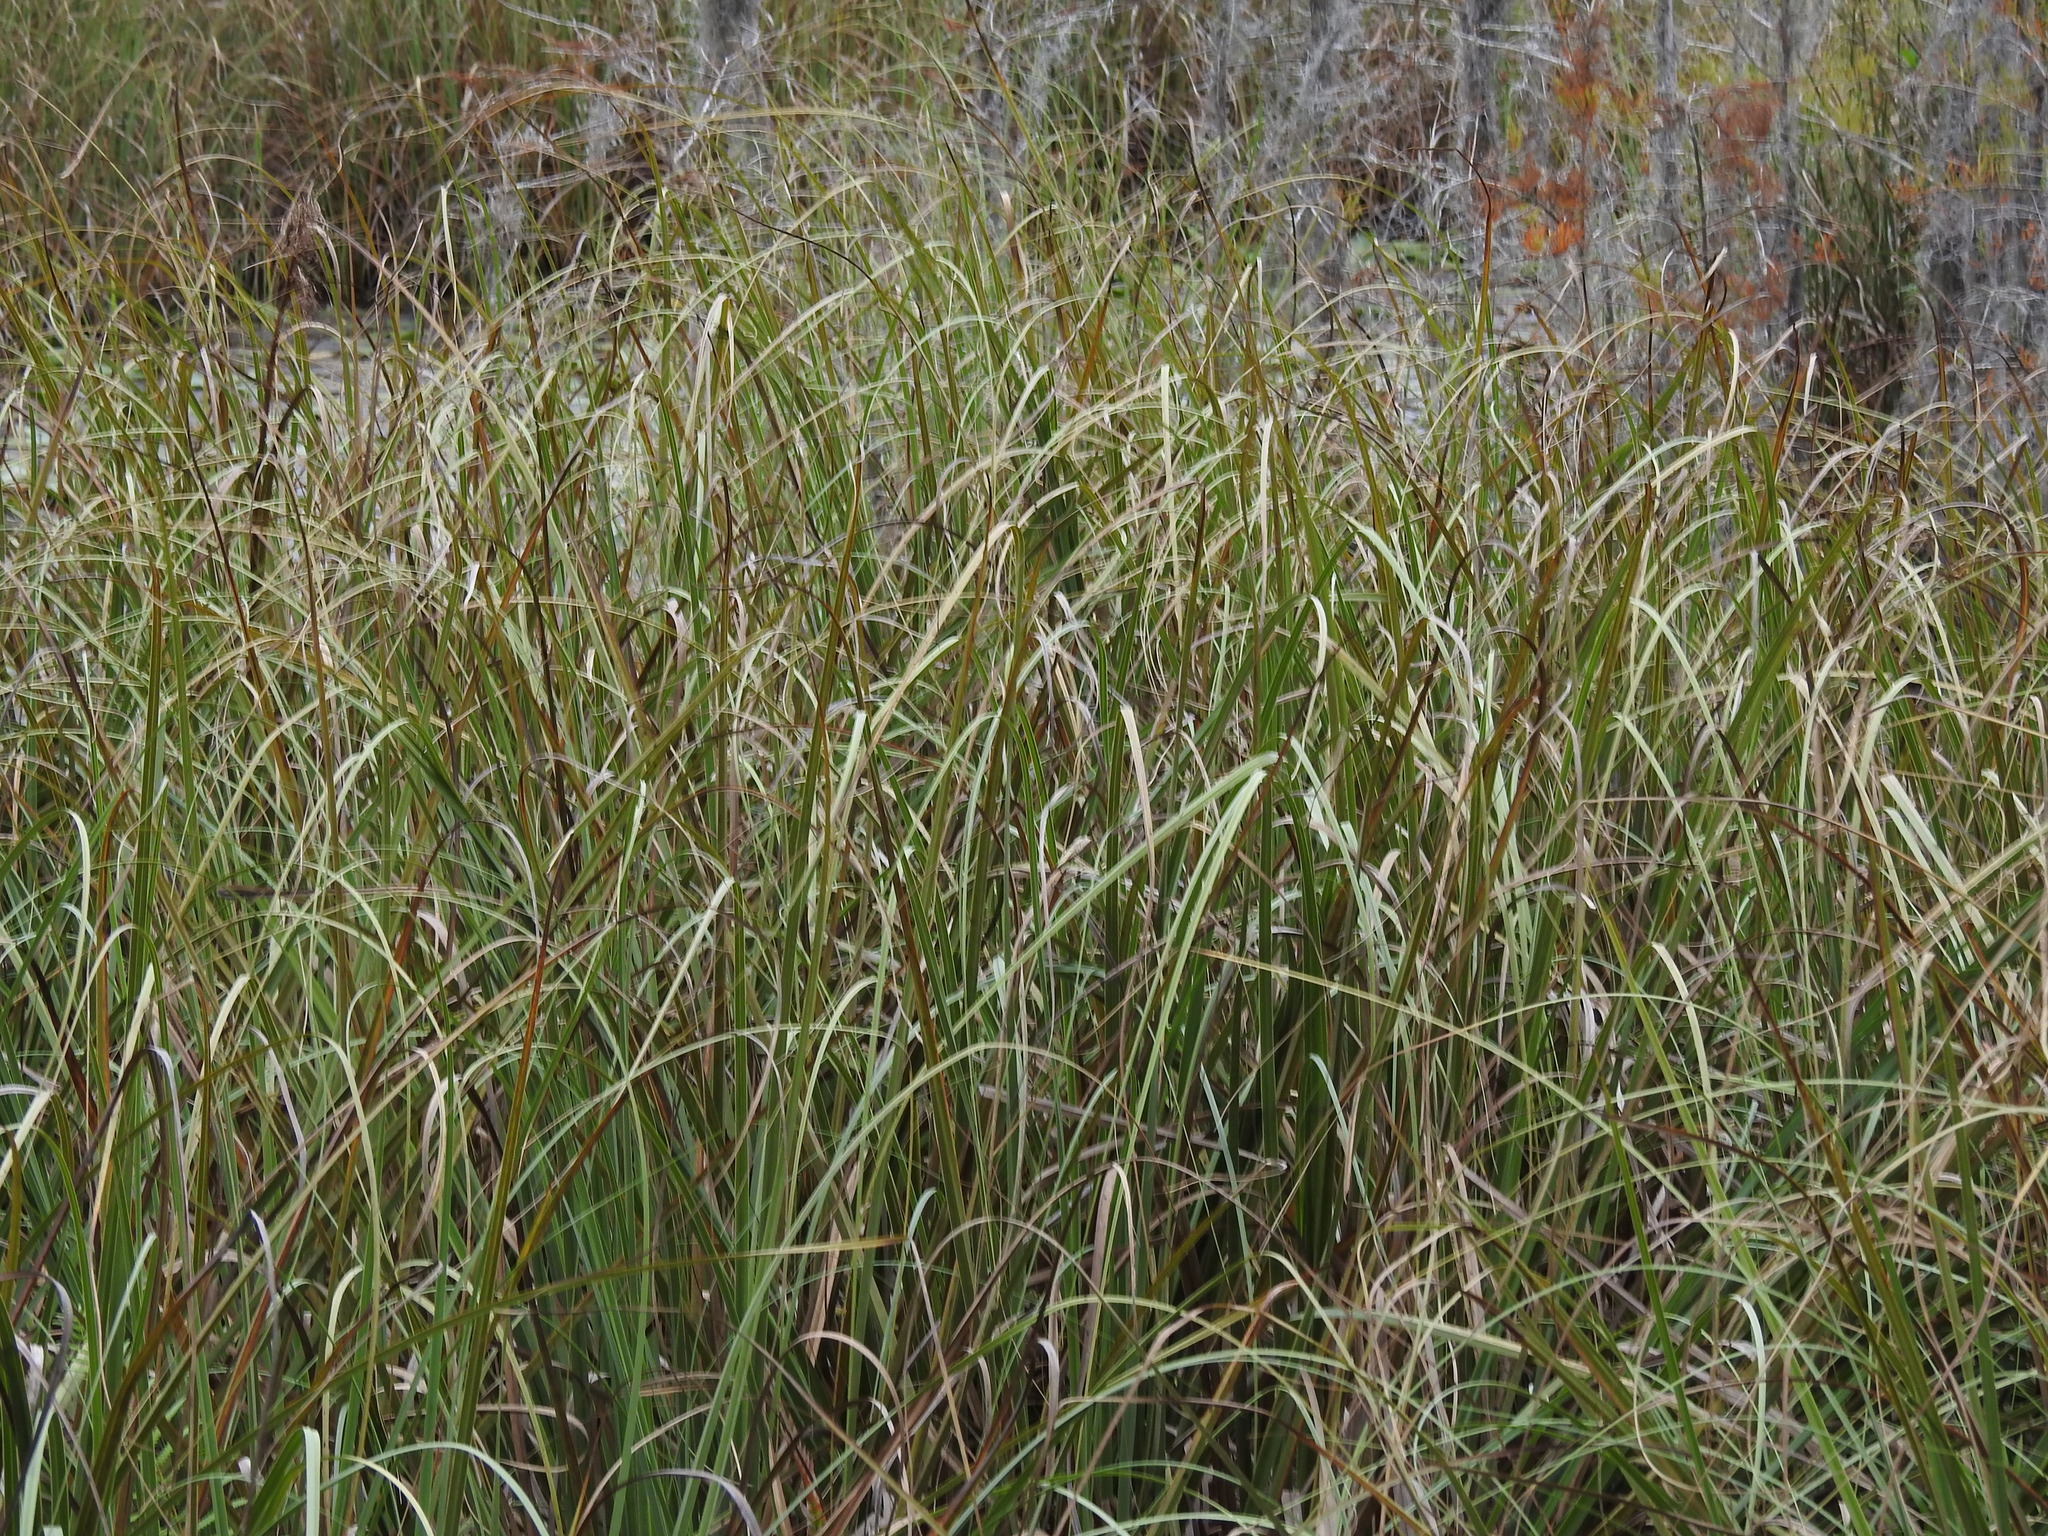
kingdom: Plantae
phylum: Tracheophyta
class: Liliopsida
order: Poales
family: Cyperaceae
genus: Cladium
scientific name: Cladium mariscus
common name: Great fen-sedge
